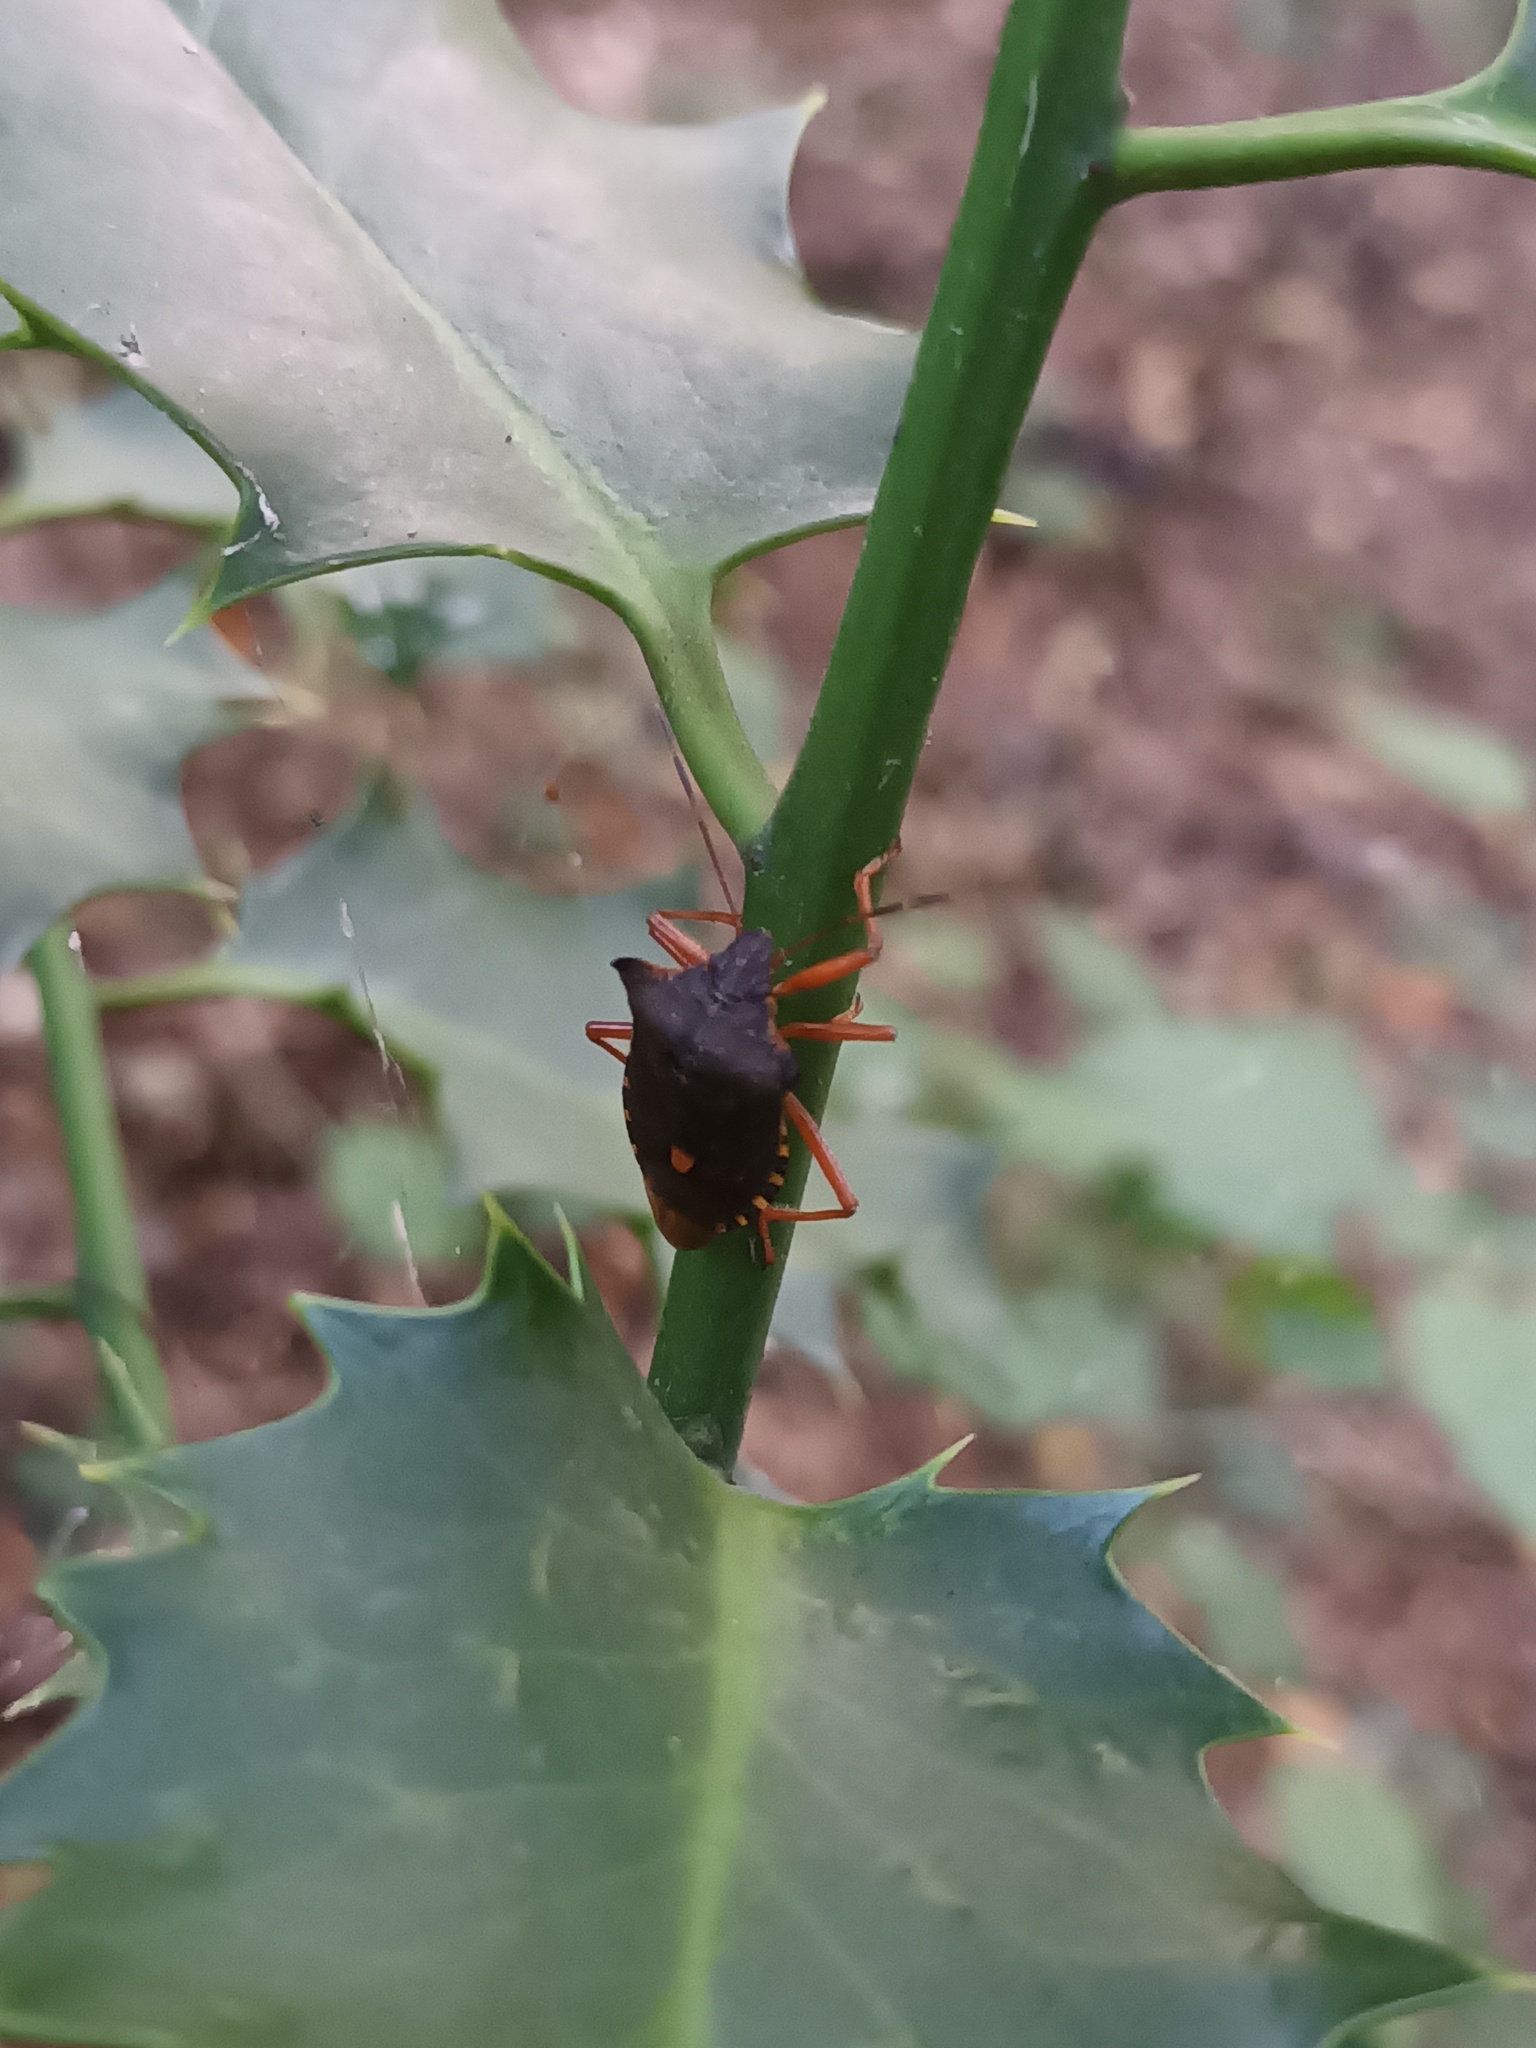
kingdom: Animalia
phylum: Arthropoda
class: Insecta
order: Hemiptera
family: Pentatomidae
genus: Pentatoma
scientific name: Pentatoma rufipes
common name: Forest bug
